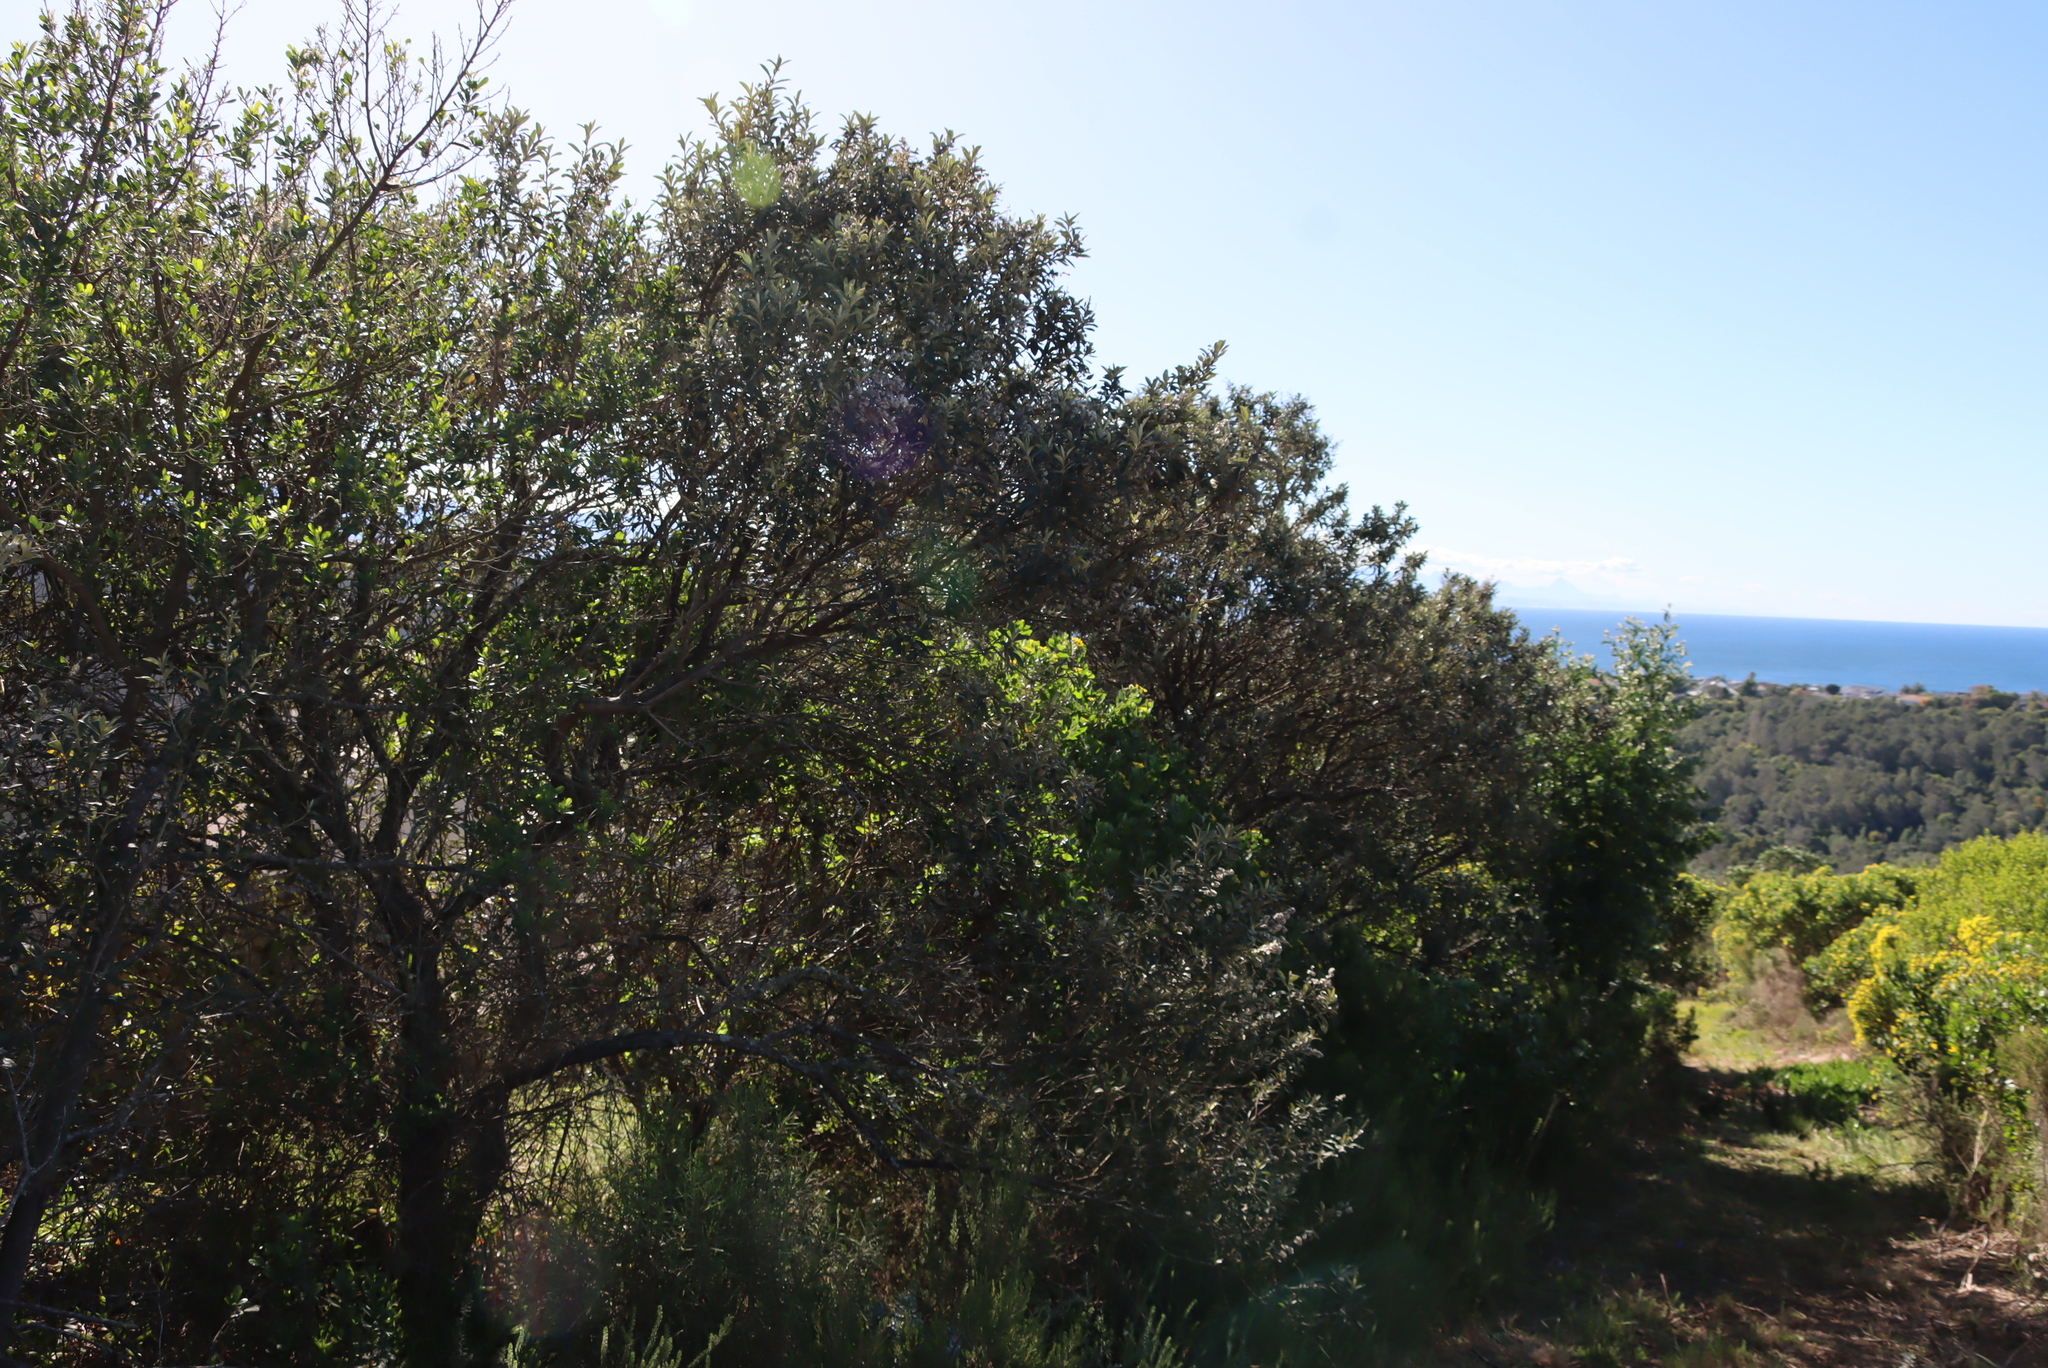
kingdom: Plantae
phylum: Tracheophyta
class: Magnoliopsida
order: Asterales
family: Asteraceae
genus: Tarchonanthus
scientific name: Tarchonanthus littoralis
